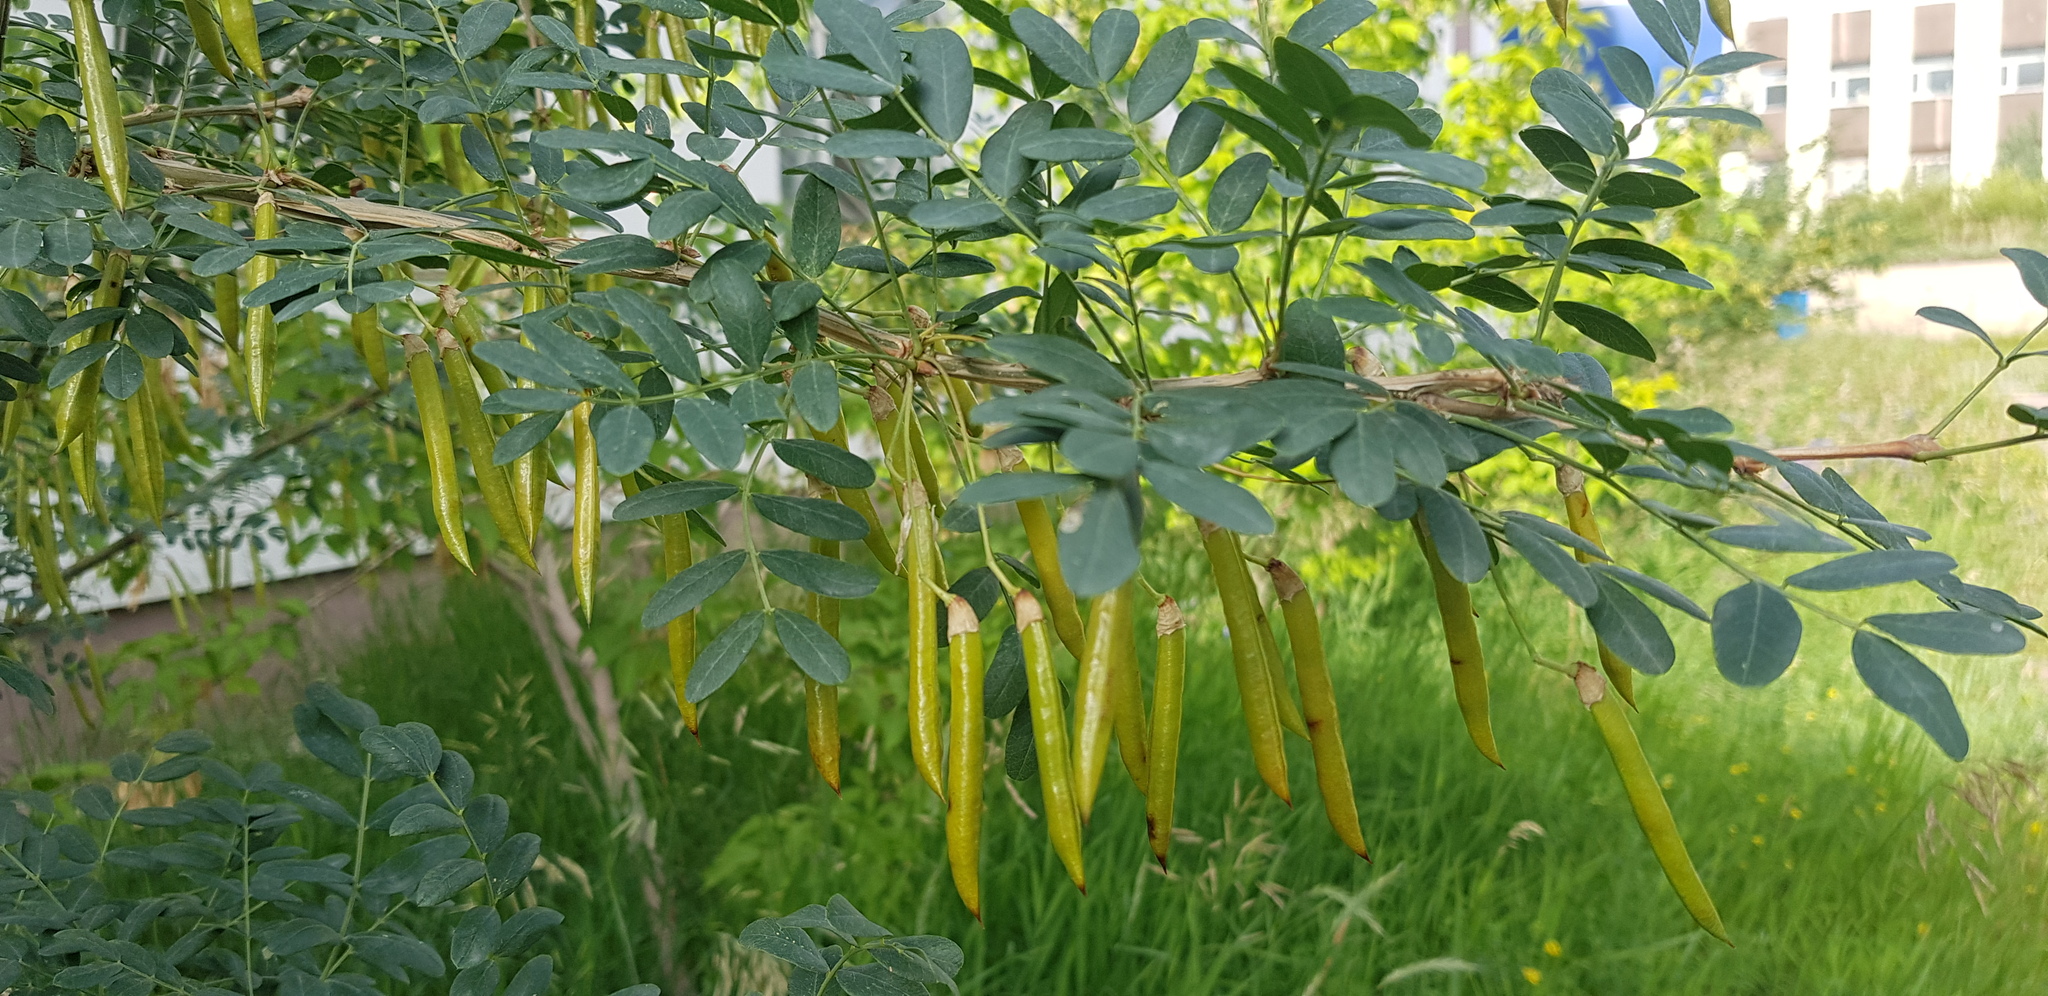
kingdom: Plantae
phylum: Tracheophyta
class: Magnoliopsida
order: Fabales
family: Fabaceae
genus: Caragana
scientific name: Caragana arborescens
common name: Siberian peashrub
